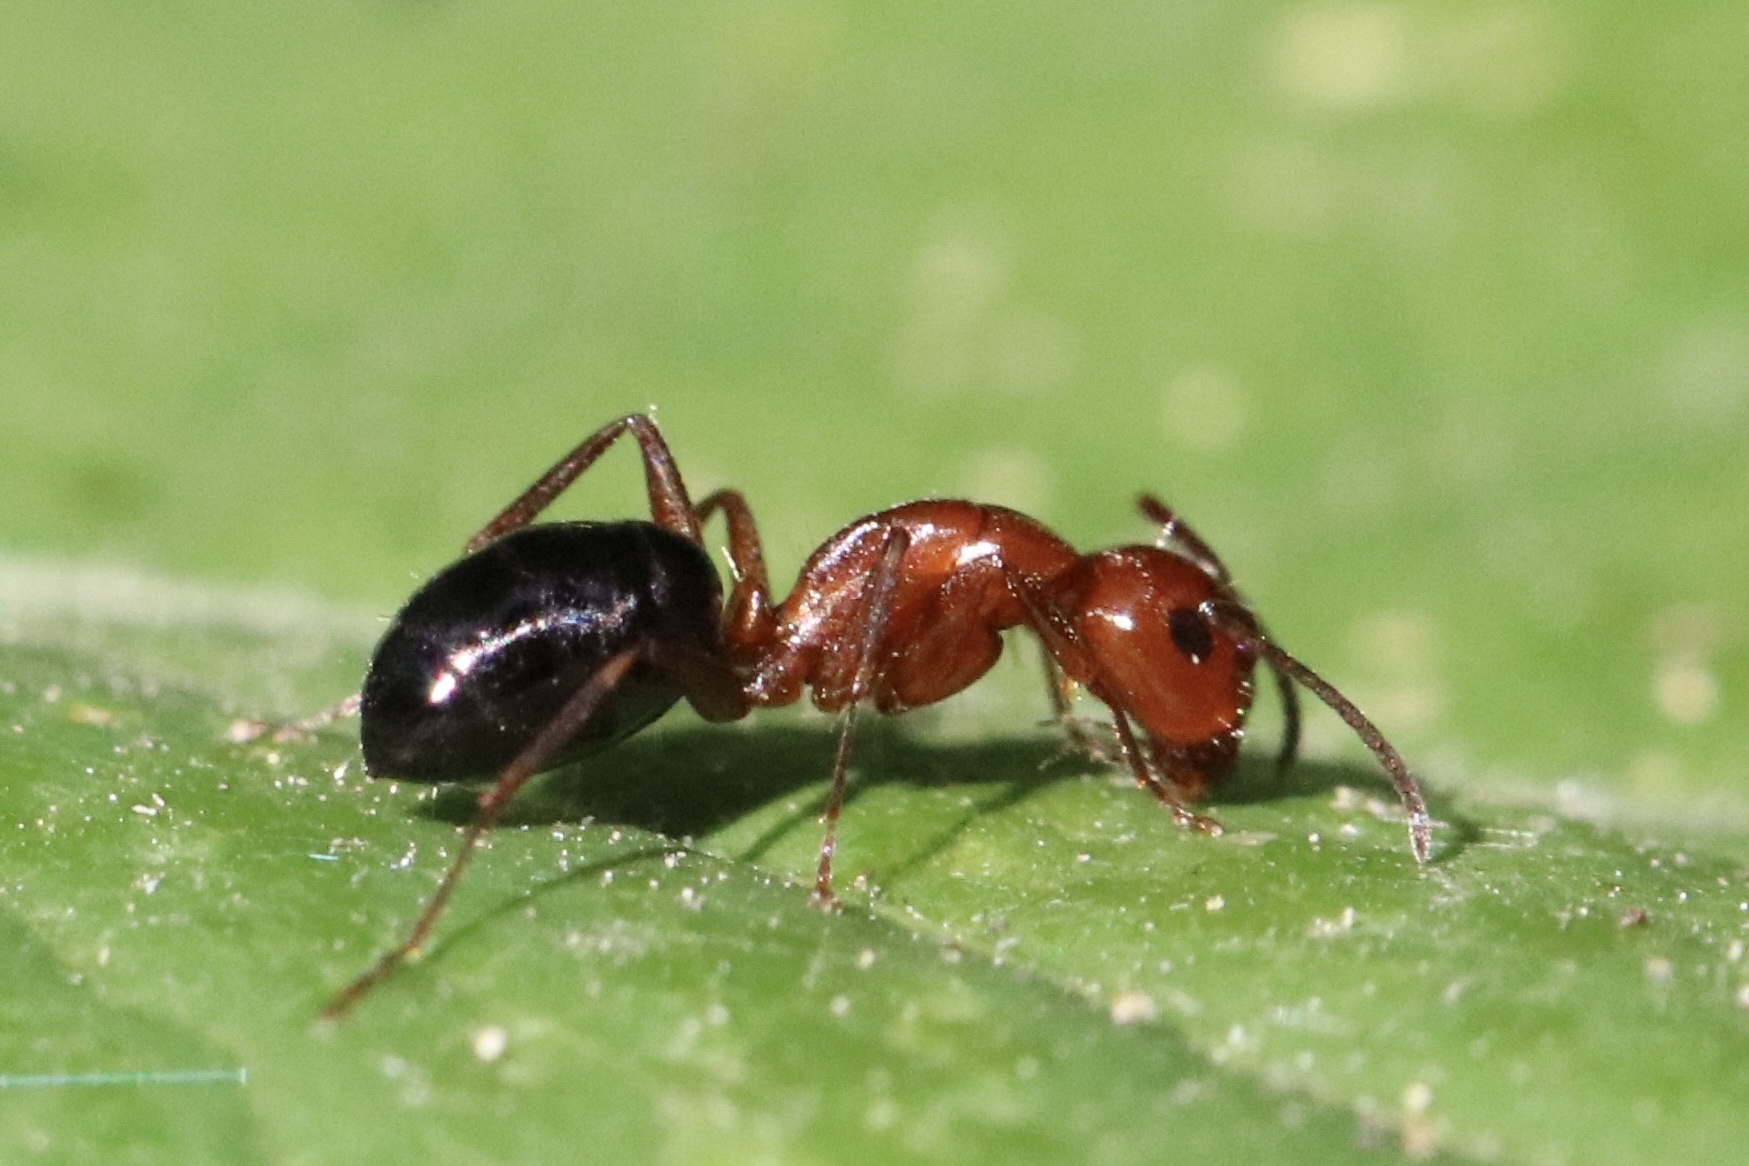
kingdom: Animalia
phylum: Arthropoda
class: Insecta
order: Hymenoptera
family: Formicidae
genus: Camponotus
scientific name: Camponotus discolor
